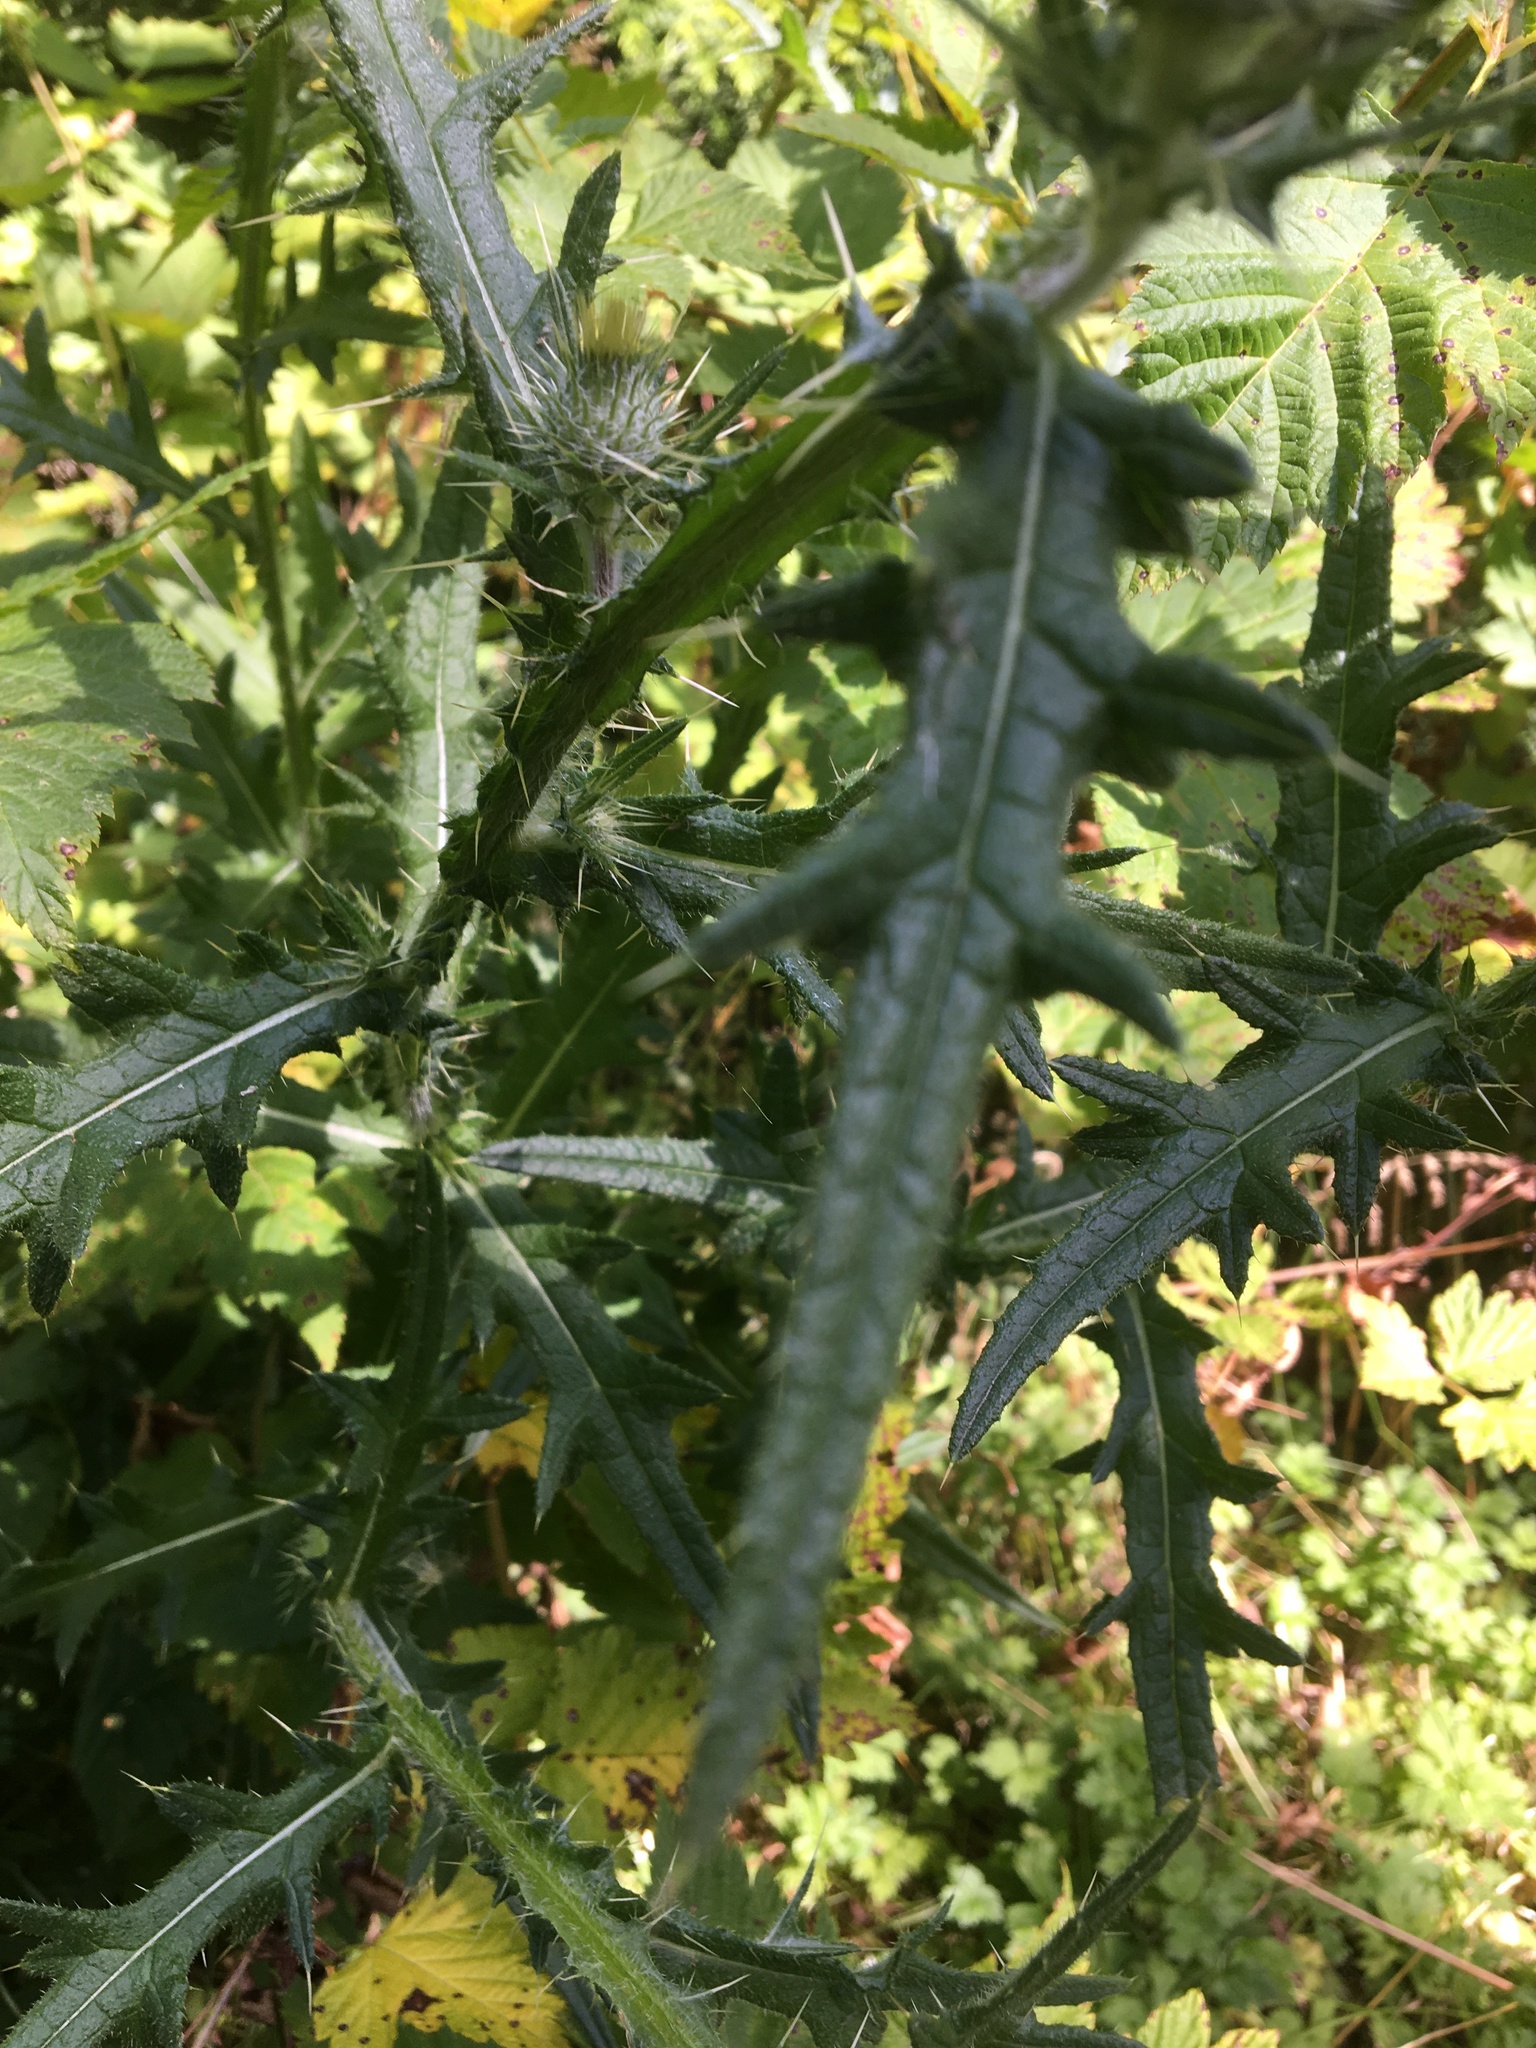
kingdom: Plantae
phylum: Tracheophyta
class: Magnoliopsida
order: Asterales
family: Asteraceae
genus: Cirsium
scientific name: Cirsium vulgare
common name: Bull thistle
